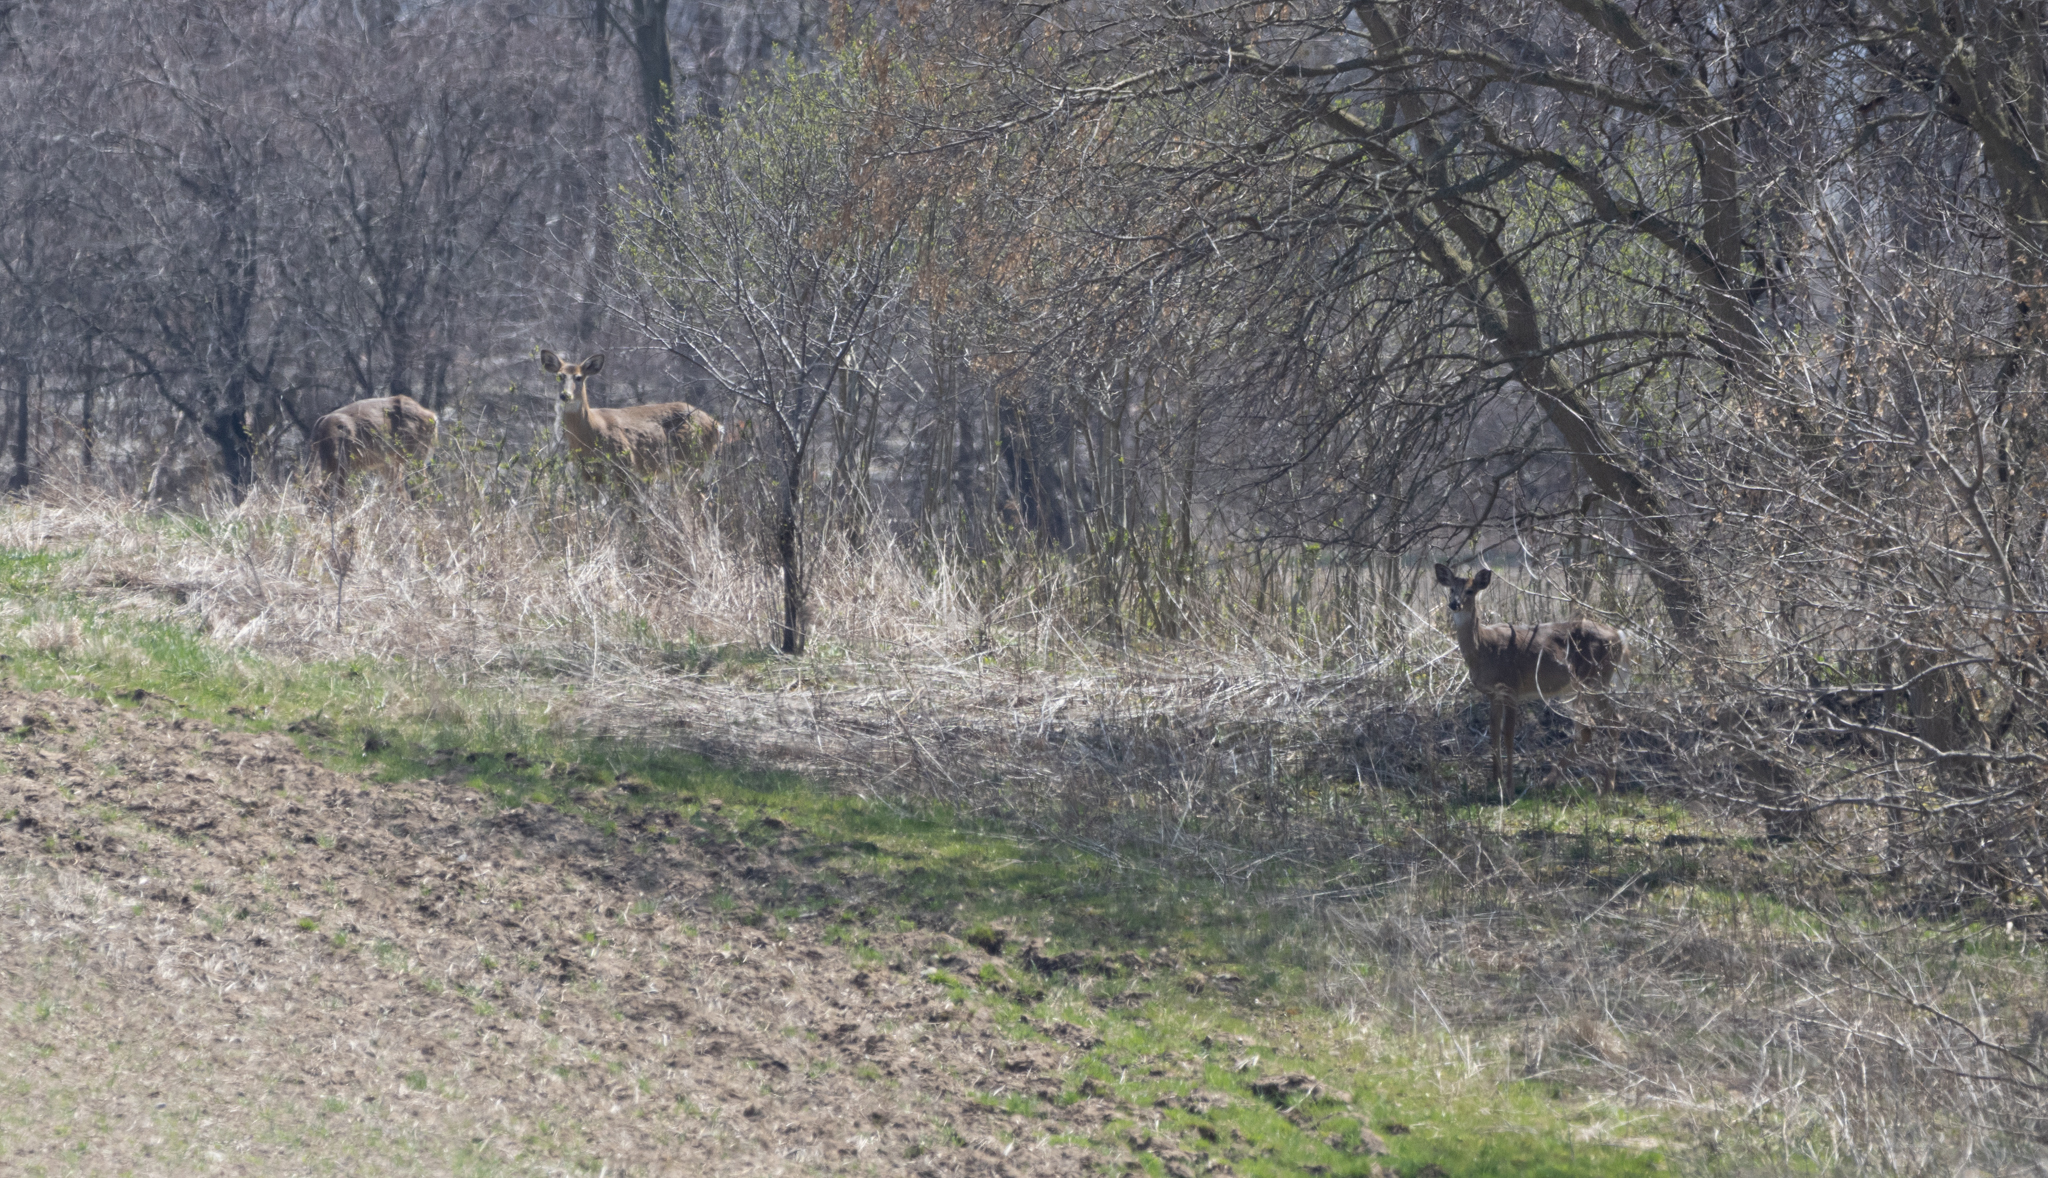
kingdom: Animalia
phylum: Chordata
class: Mammalia
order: Artiodactyla
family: Cervidae
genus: Odocoileus
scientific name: Odocoileus virginianus
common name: White-tailed deer
